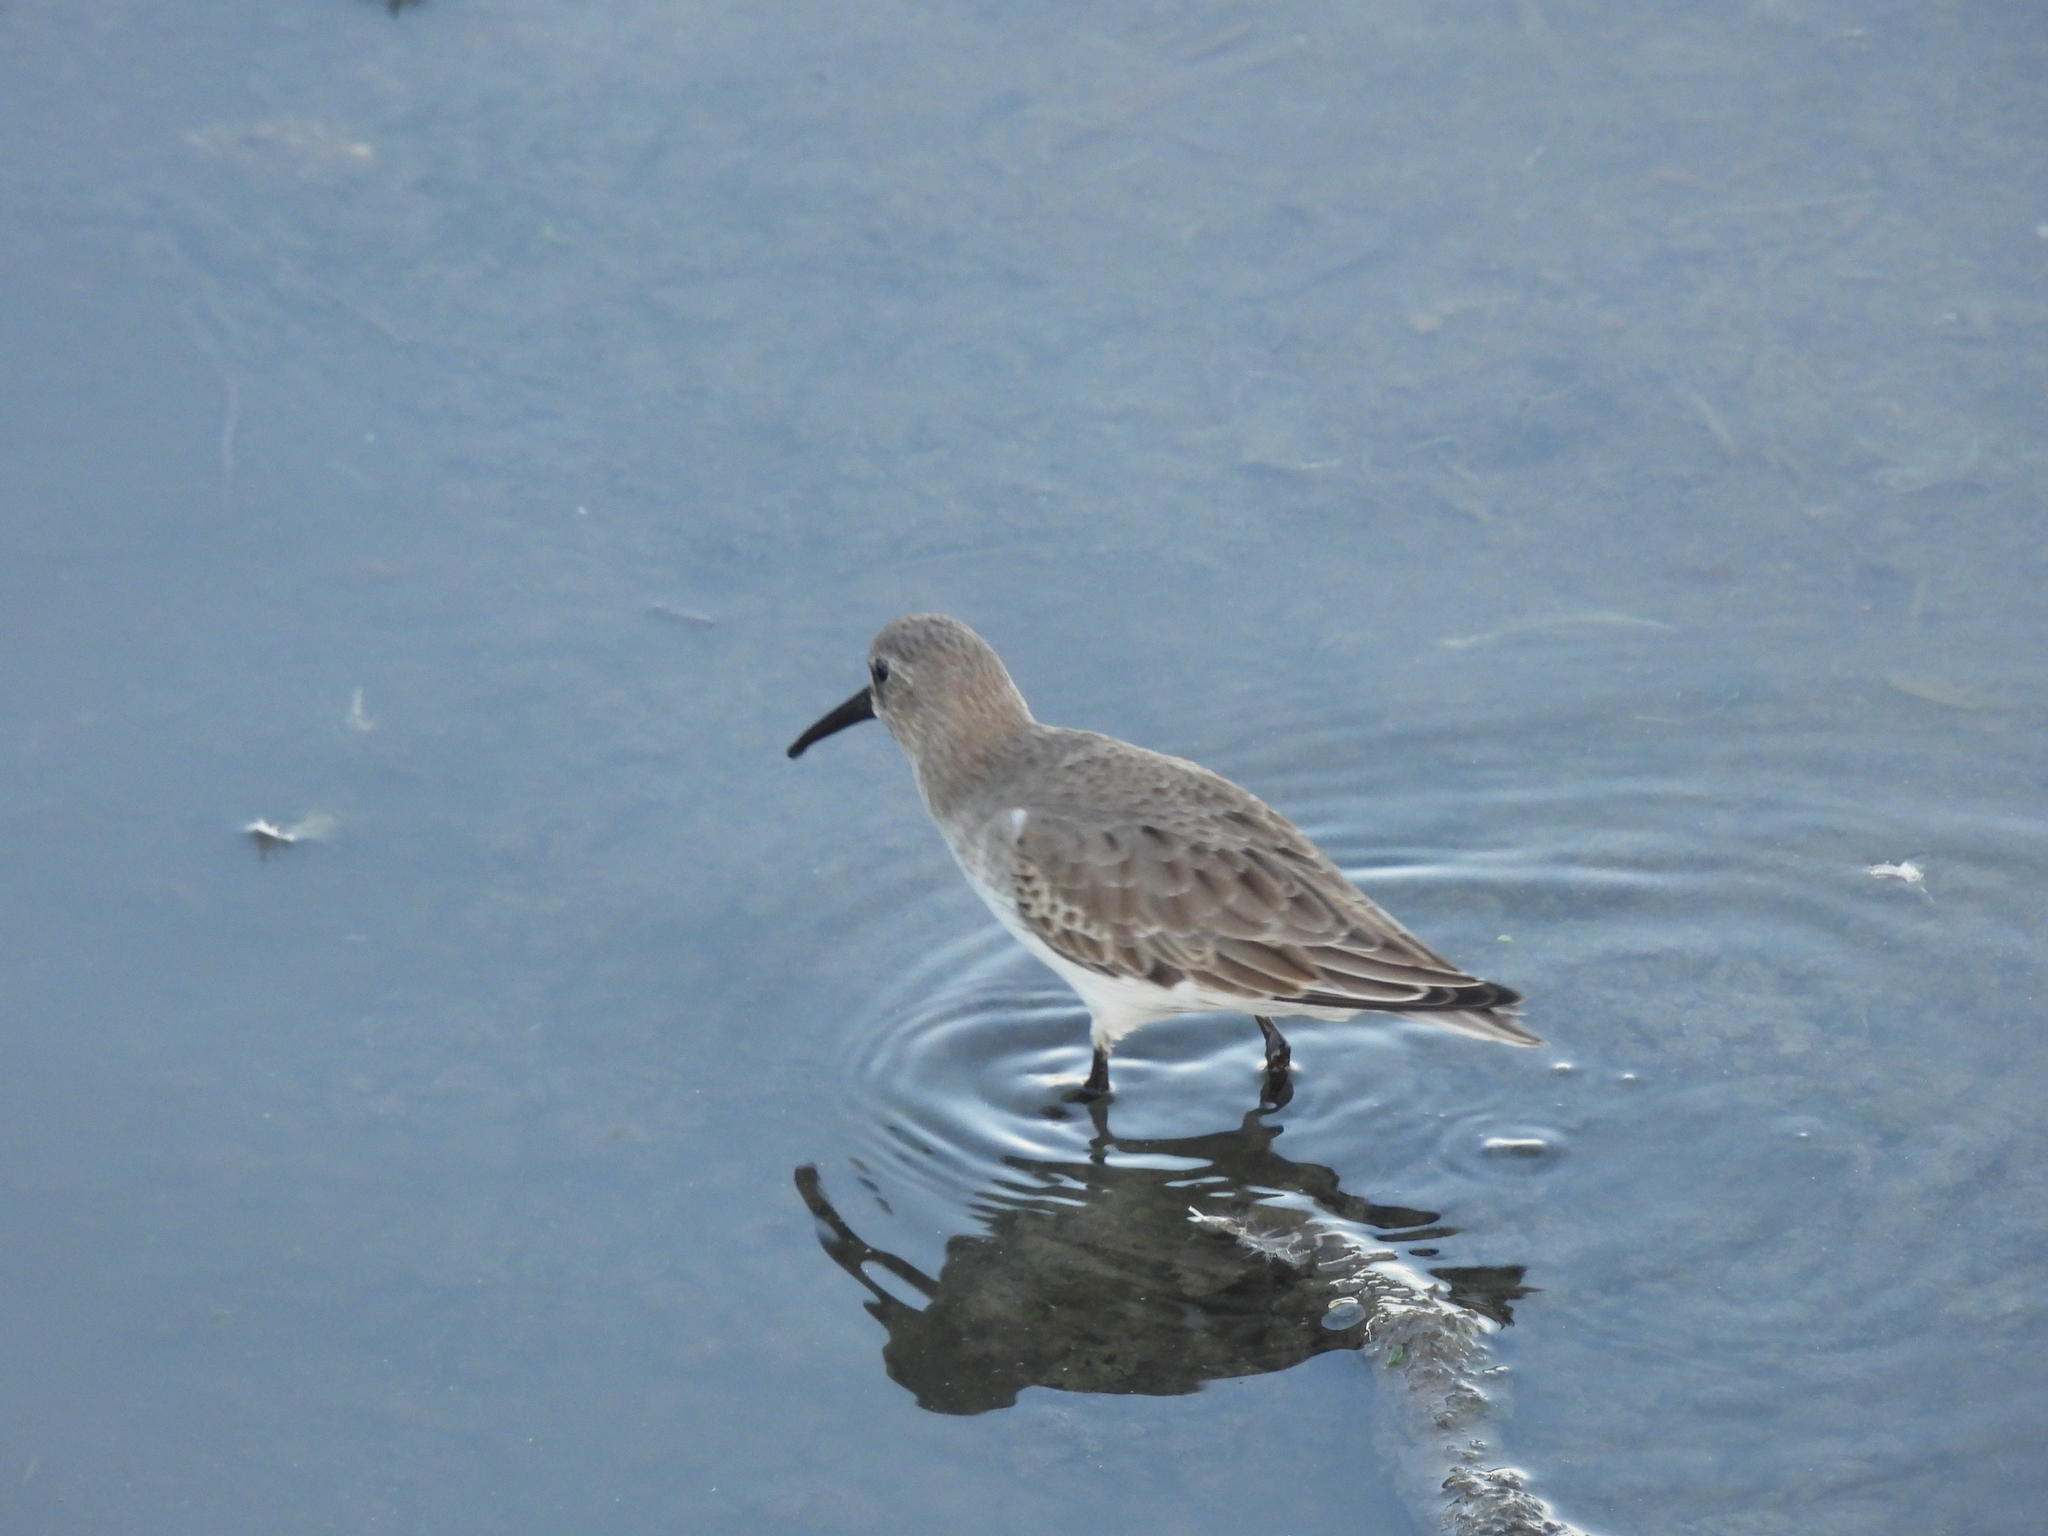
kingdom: Animalia
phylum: Chordata
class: Aves
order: Charadriiformes
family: Scolopacidae
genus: Calidris
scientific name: Calidris alpina
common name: Dunlin
